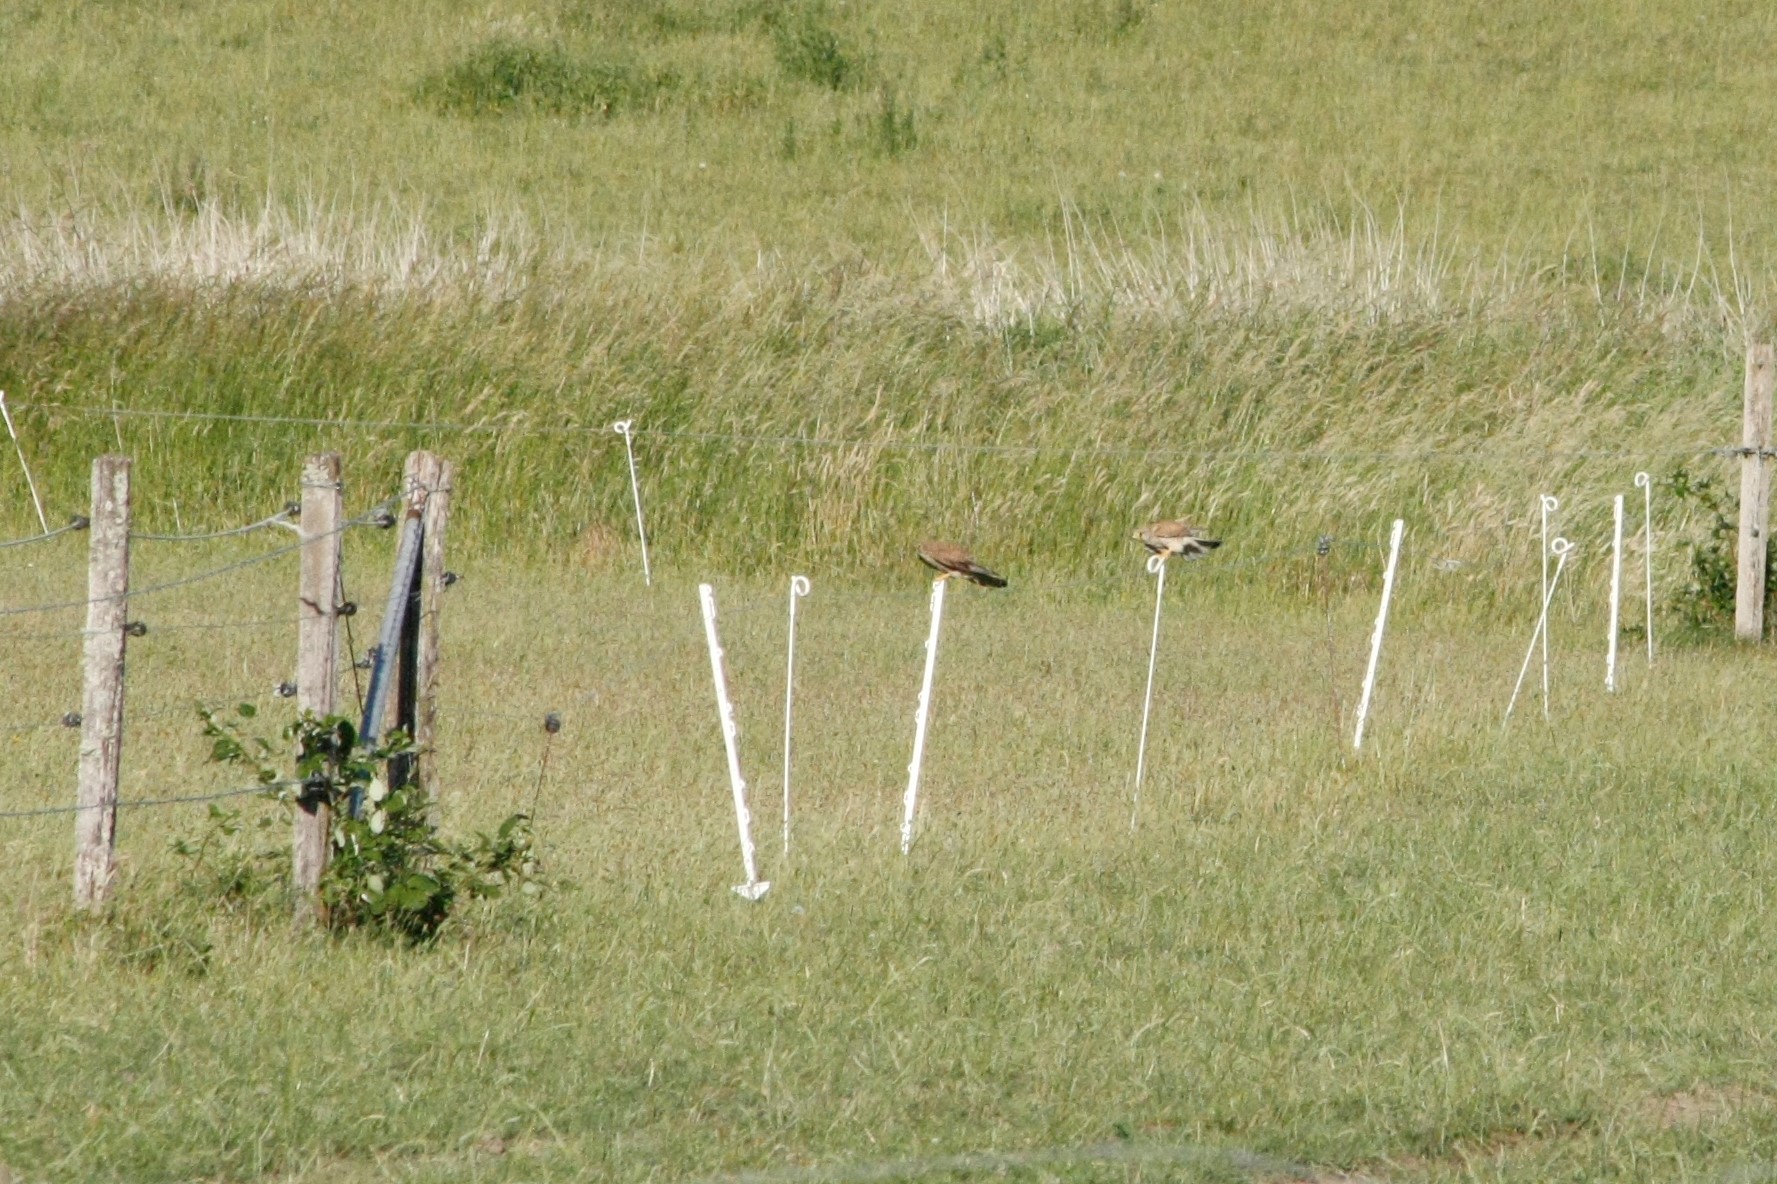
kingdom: Animalia
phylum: Chordata
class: Aves
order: Falconiformes
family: Falconidae
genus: Falco
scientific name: Falco tinnunculus
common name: Common kestrel
